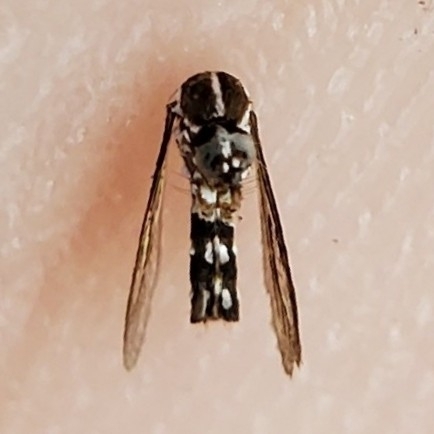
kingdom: Animalia
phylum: Arthropoda
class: Insecta
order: Diptera
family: Culicidae
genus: Aedes
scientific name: Aedes albopictus
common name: Tiger mosquito
